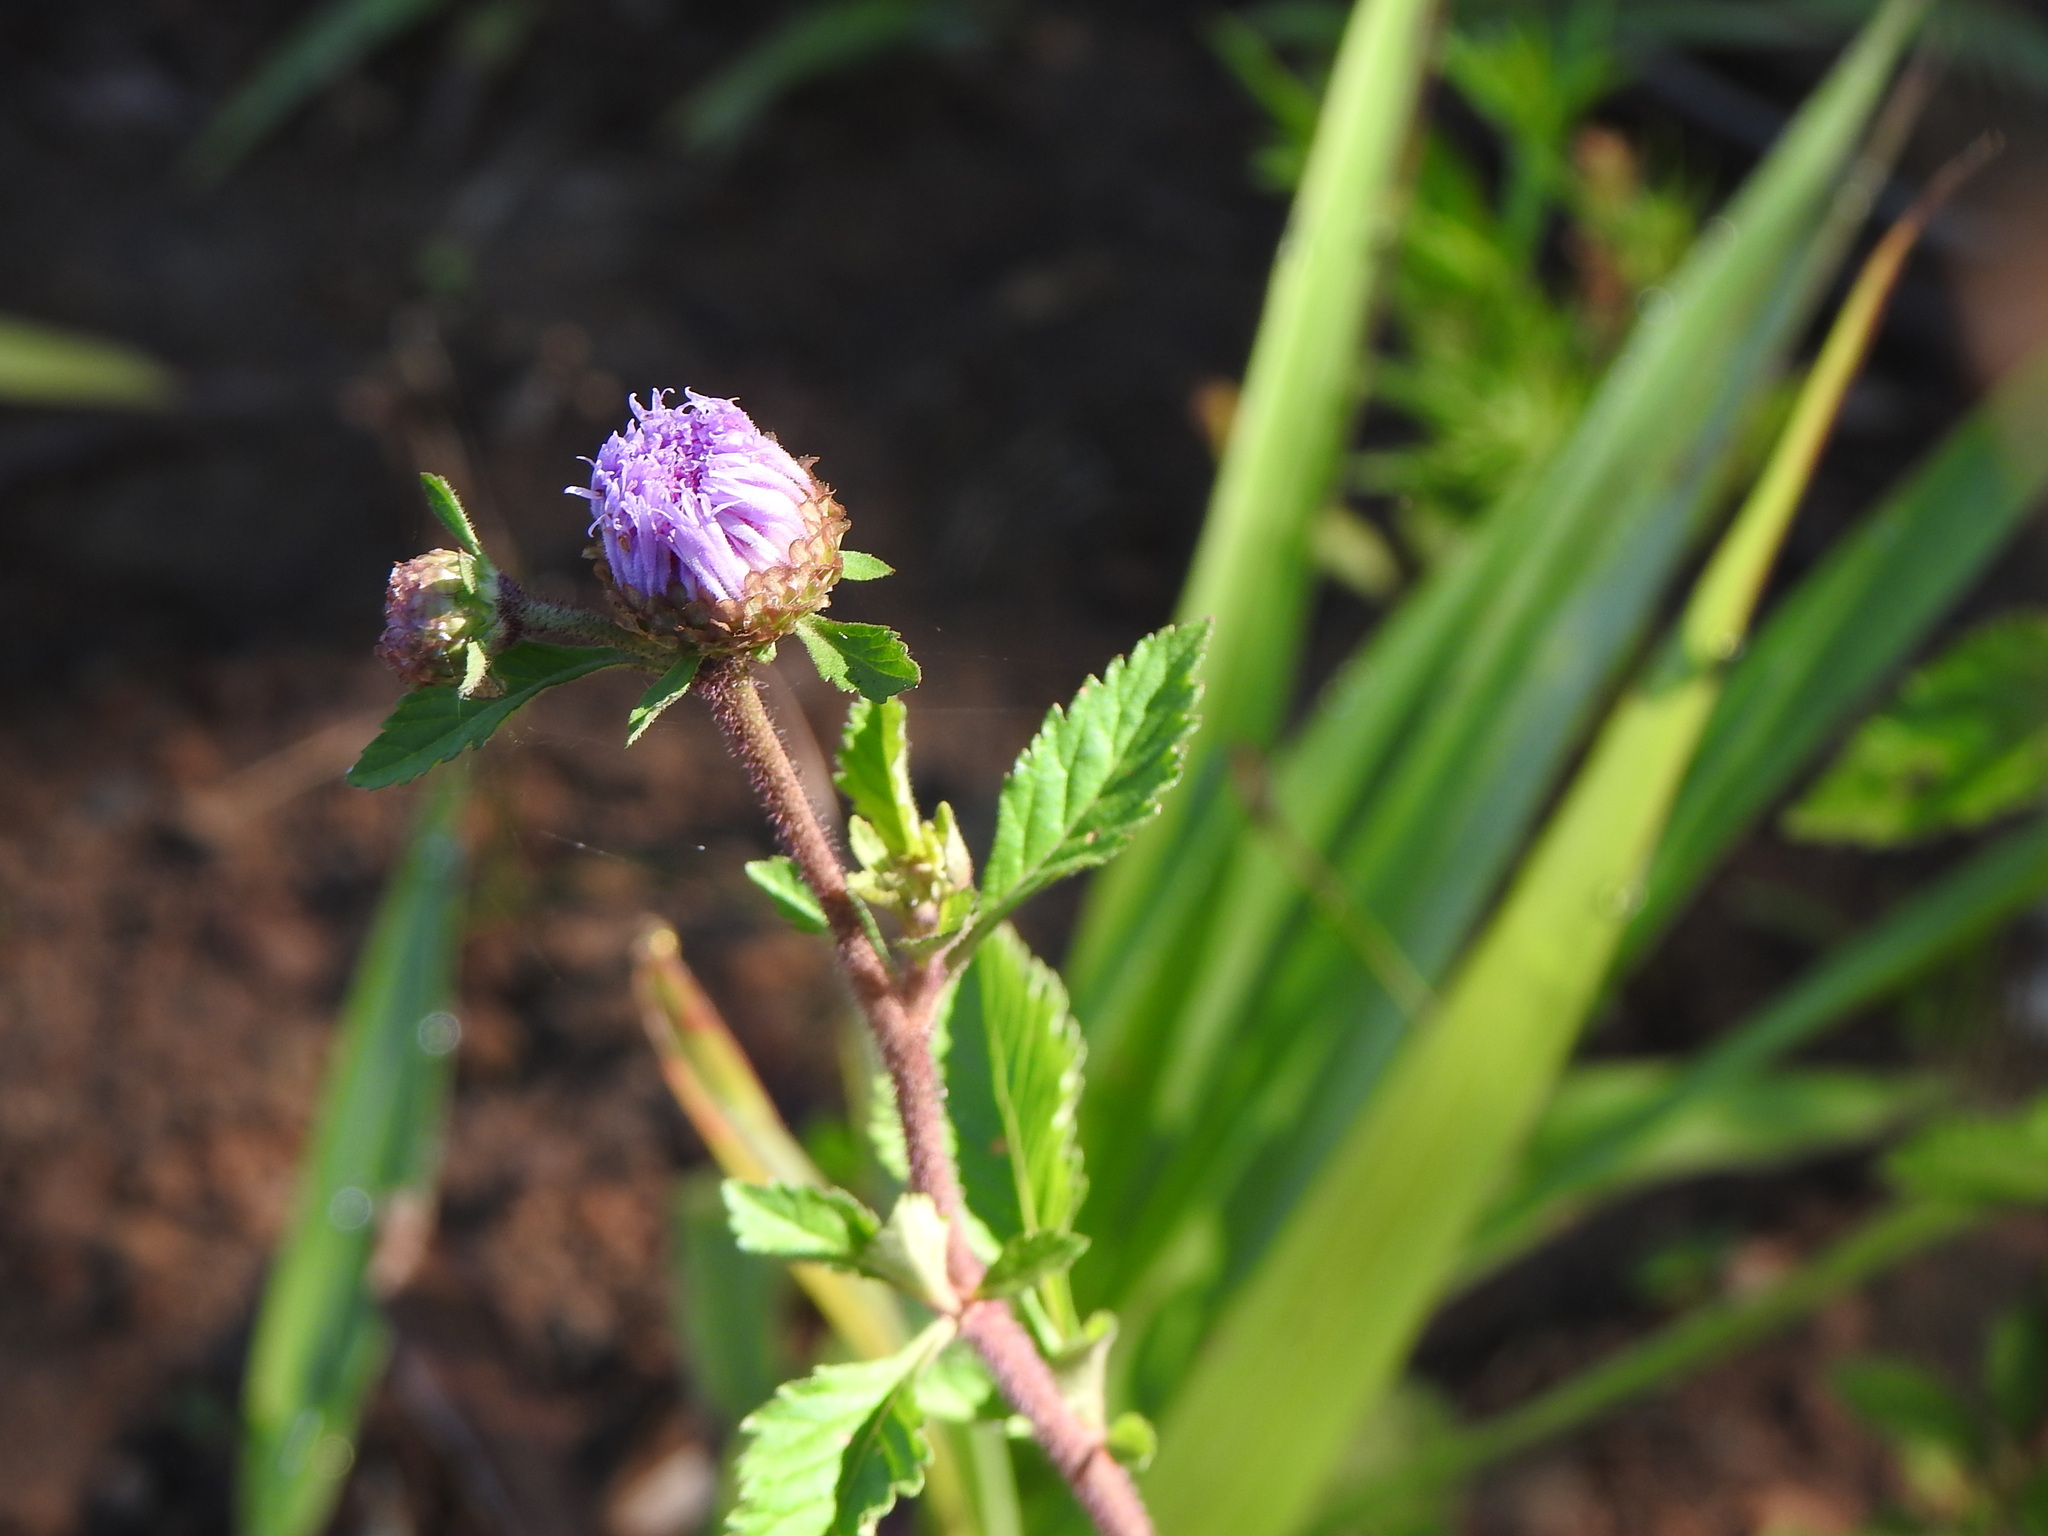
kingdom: Plantae
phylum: Tracheophyta
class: Magnoliopsida
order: Asterales
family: Asteraceae
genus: Centratherum
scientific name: Centratherum punctatum
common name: Larkdaisy
